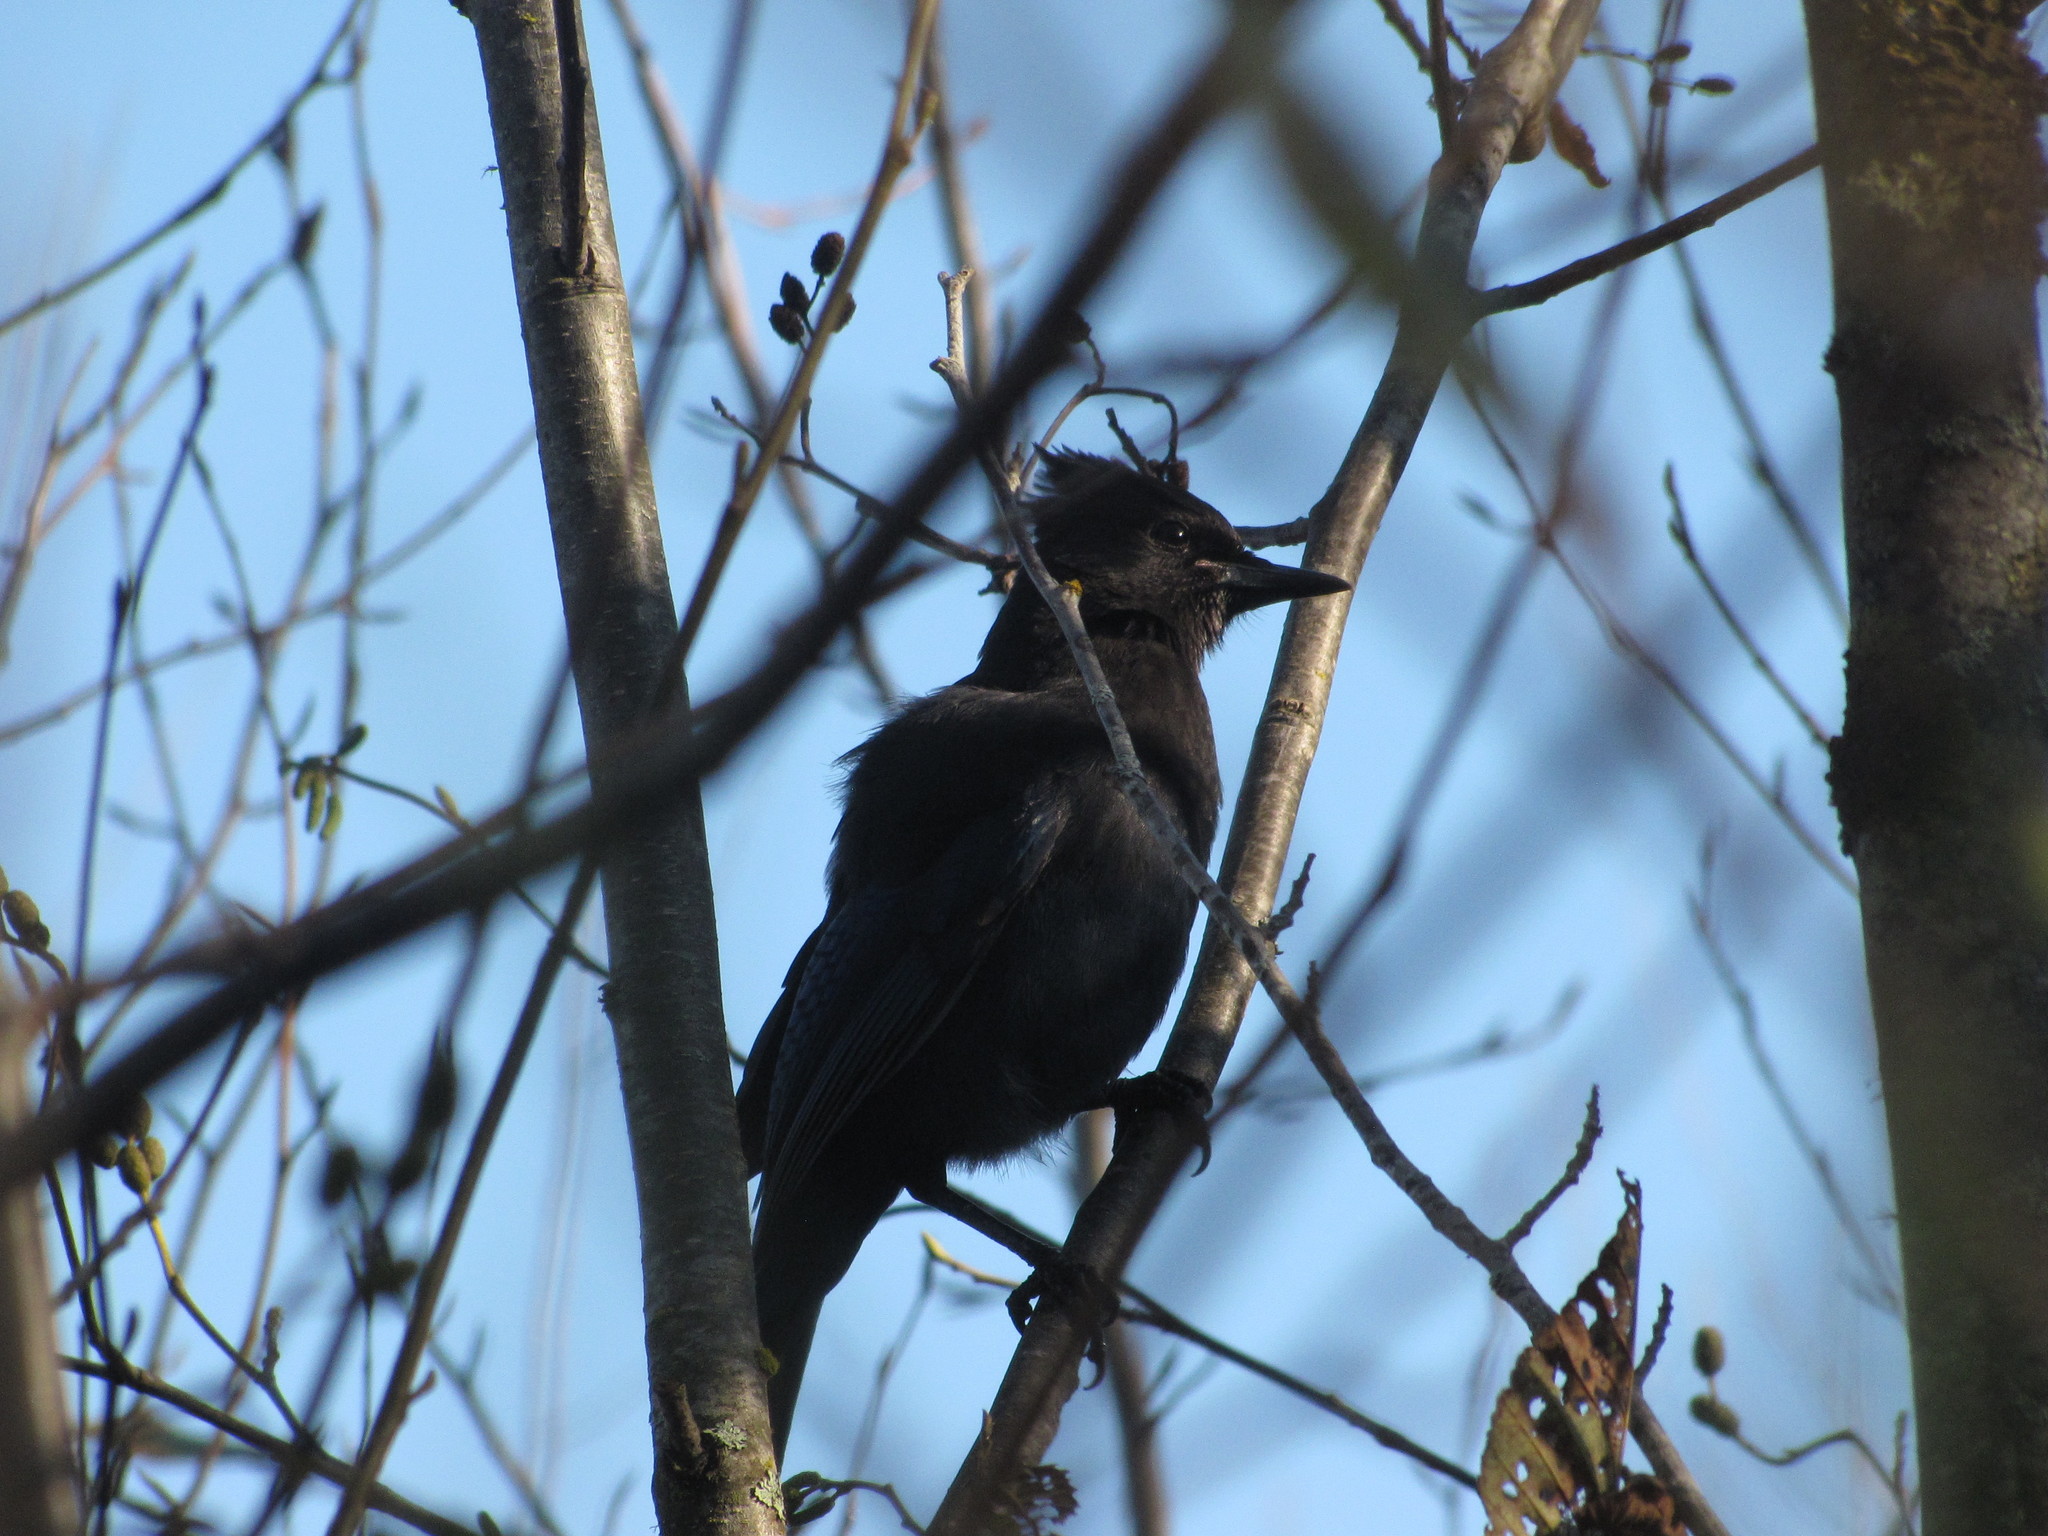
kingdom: Animalia
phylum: Chordata
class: Aves
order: Passeriformes
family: Corvidae
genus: Cyanocitta
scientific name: Cyanocitta stelleri
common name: Steller's jay
